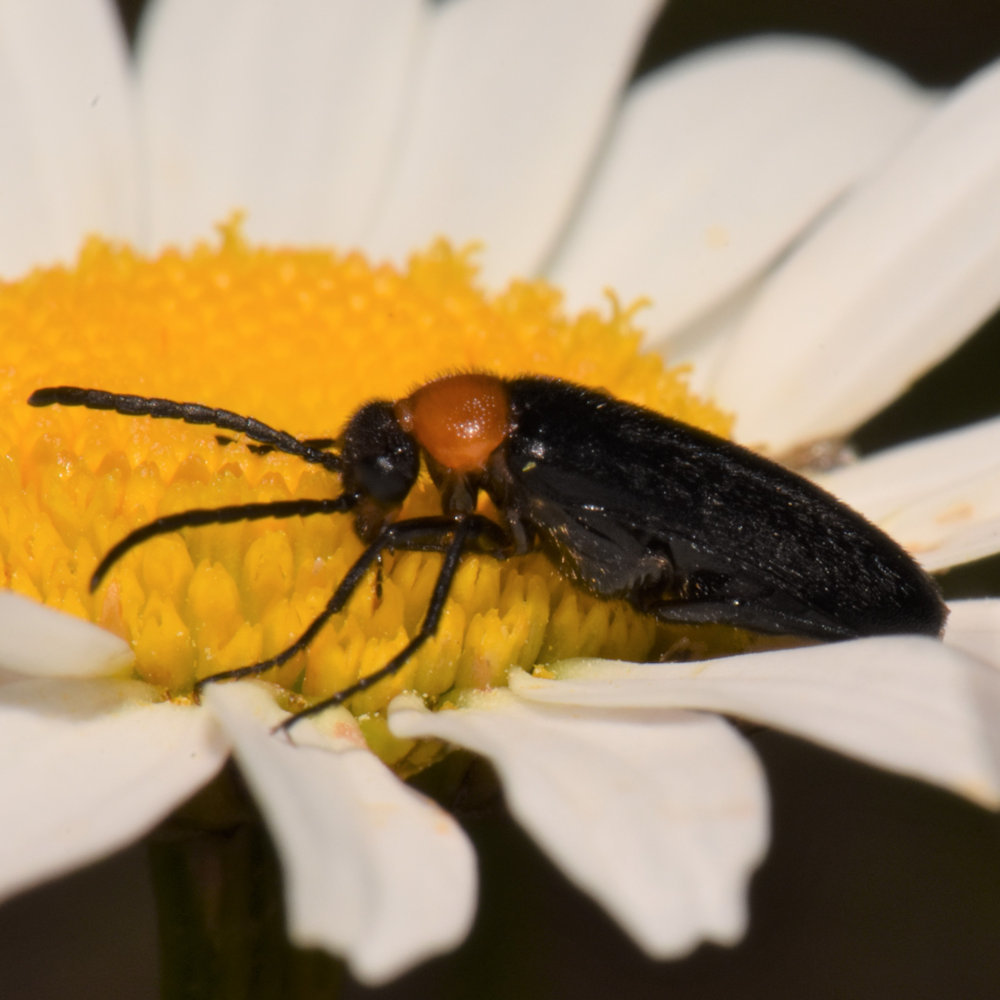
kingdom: Animalia
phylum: Arthropoda
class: Insecta
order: Coleoptera
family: Meloidae
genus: Nemognatha
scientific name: Nemognatha nemorensis
